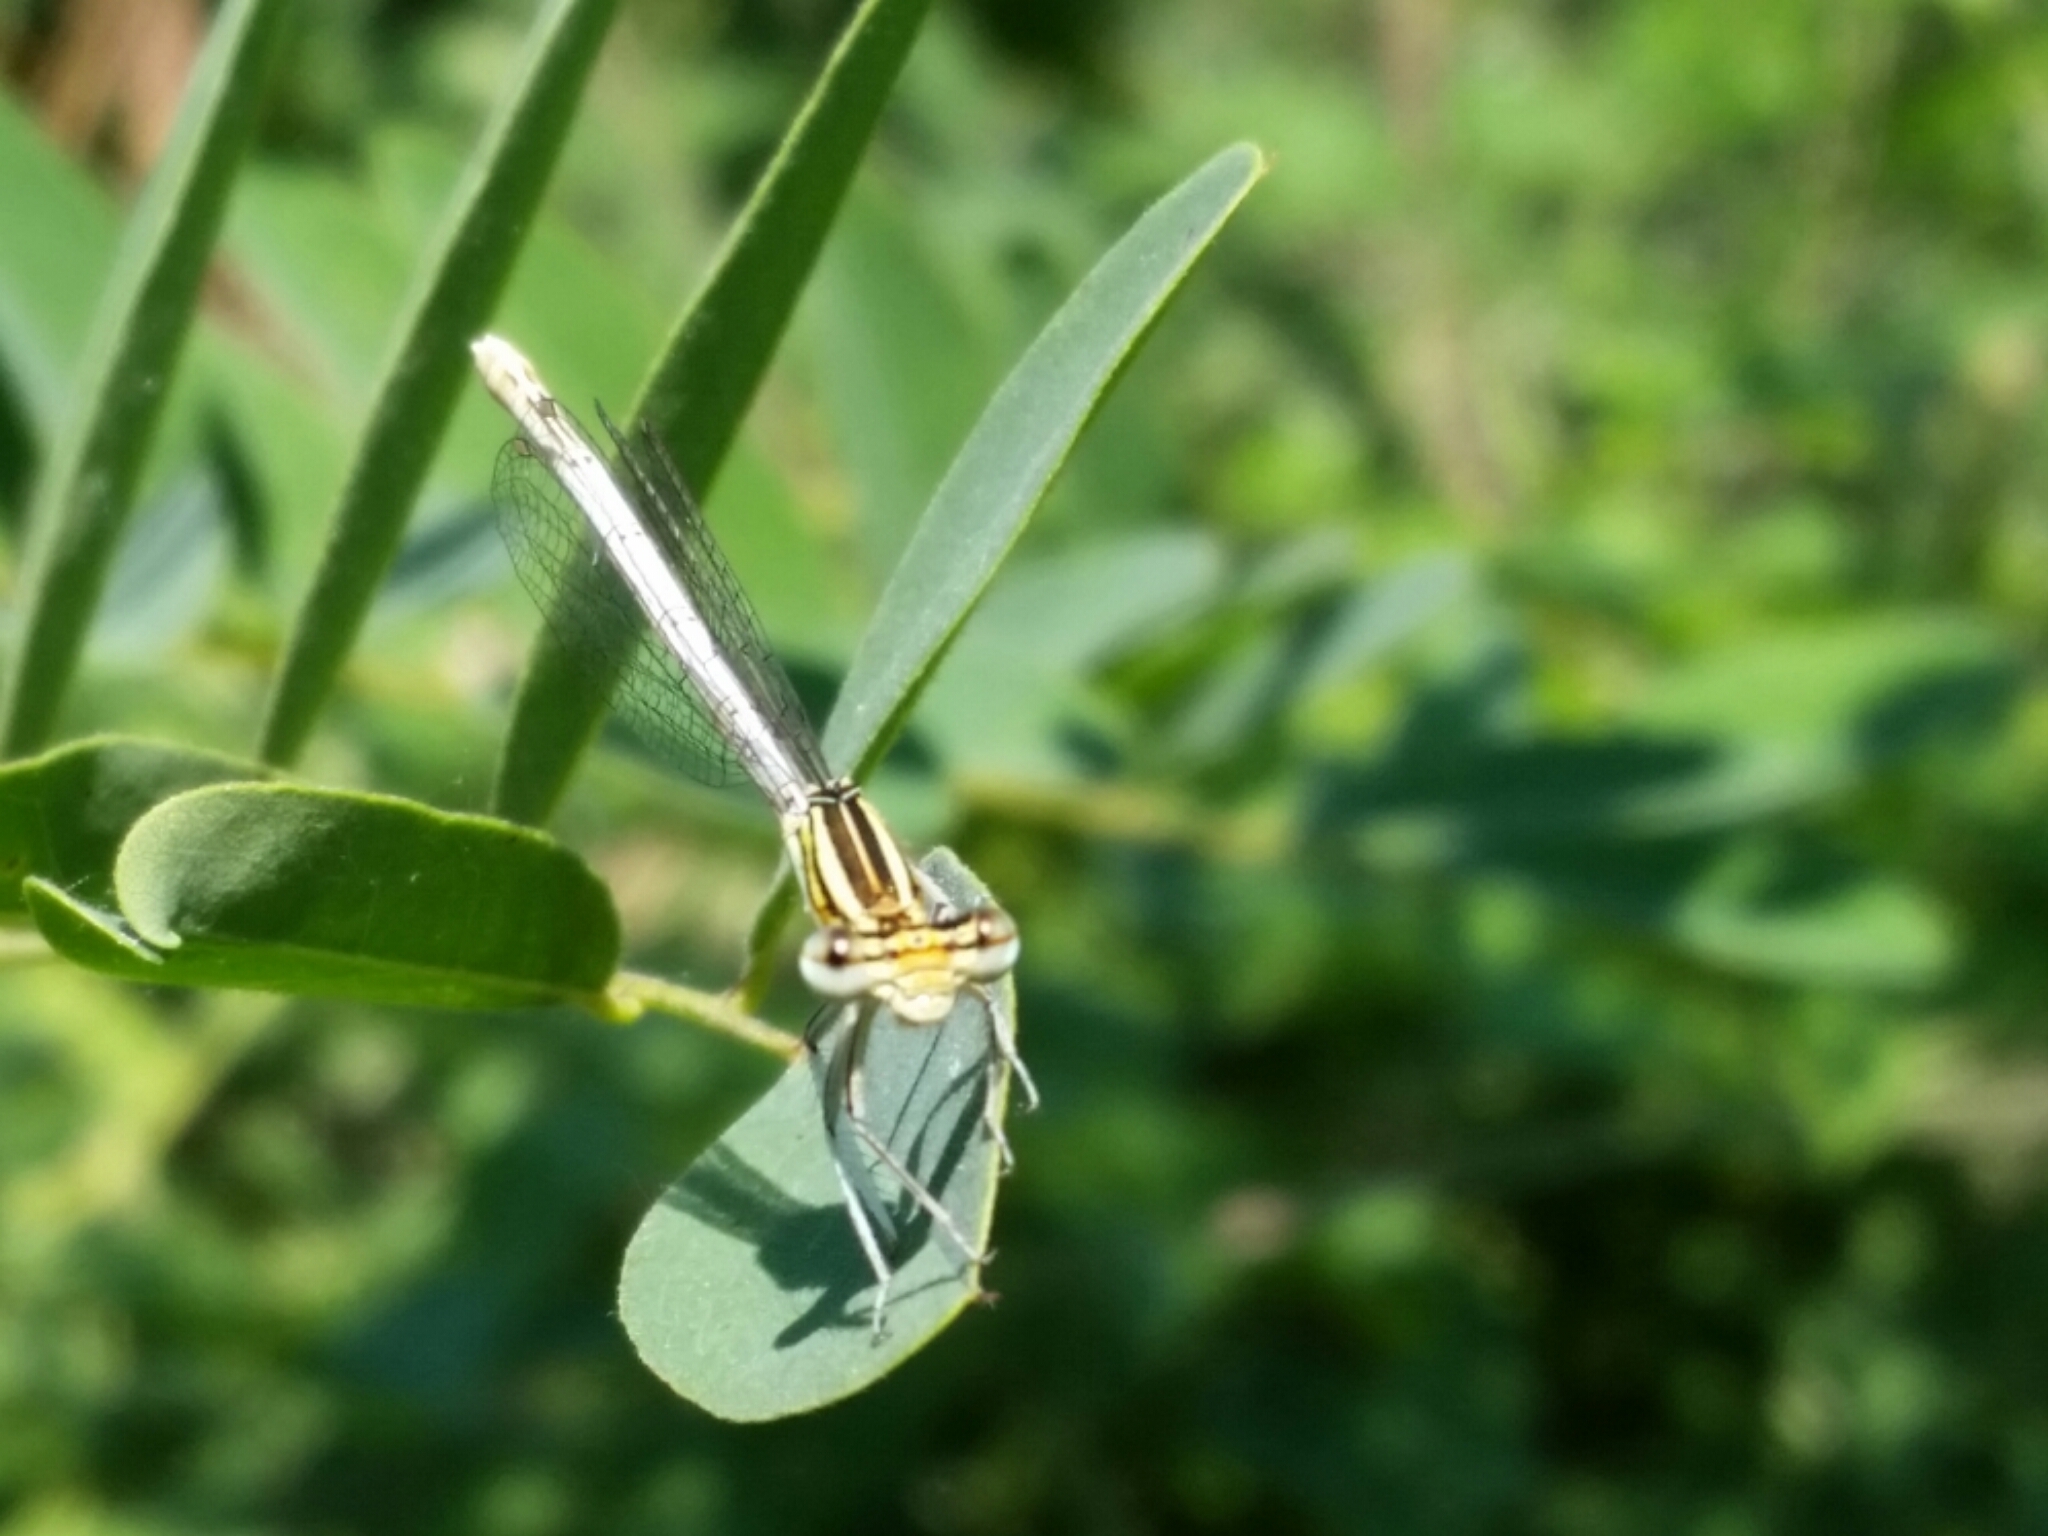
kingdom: Animalia
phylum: Arthropoda
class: Insecta
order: Odonata
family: Platycnemididae
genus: Platycnemis
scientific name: Platycnemis pennipes
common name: White-legged damselfly
